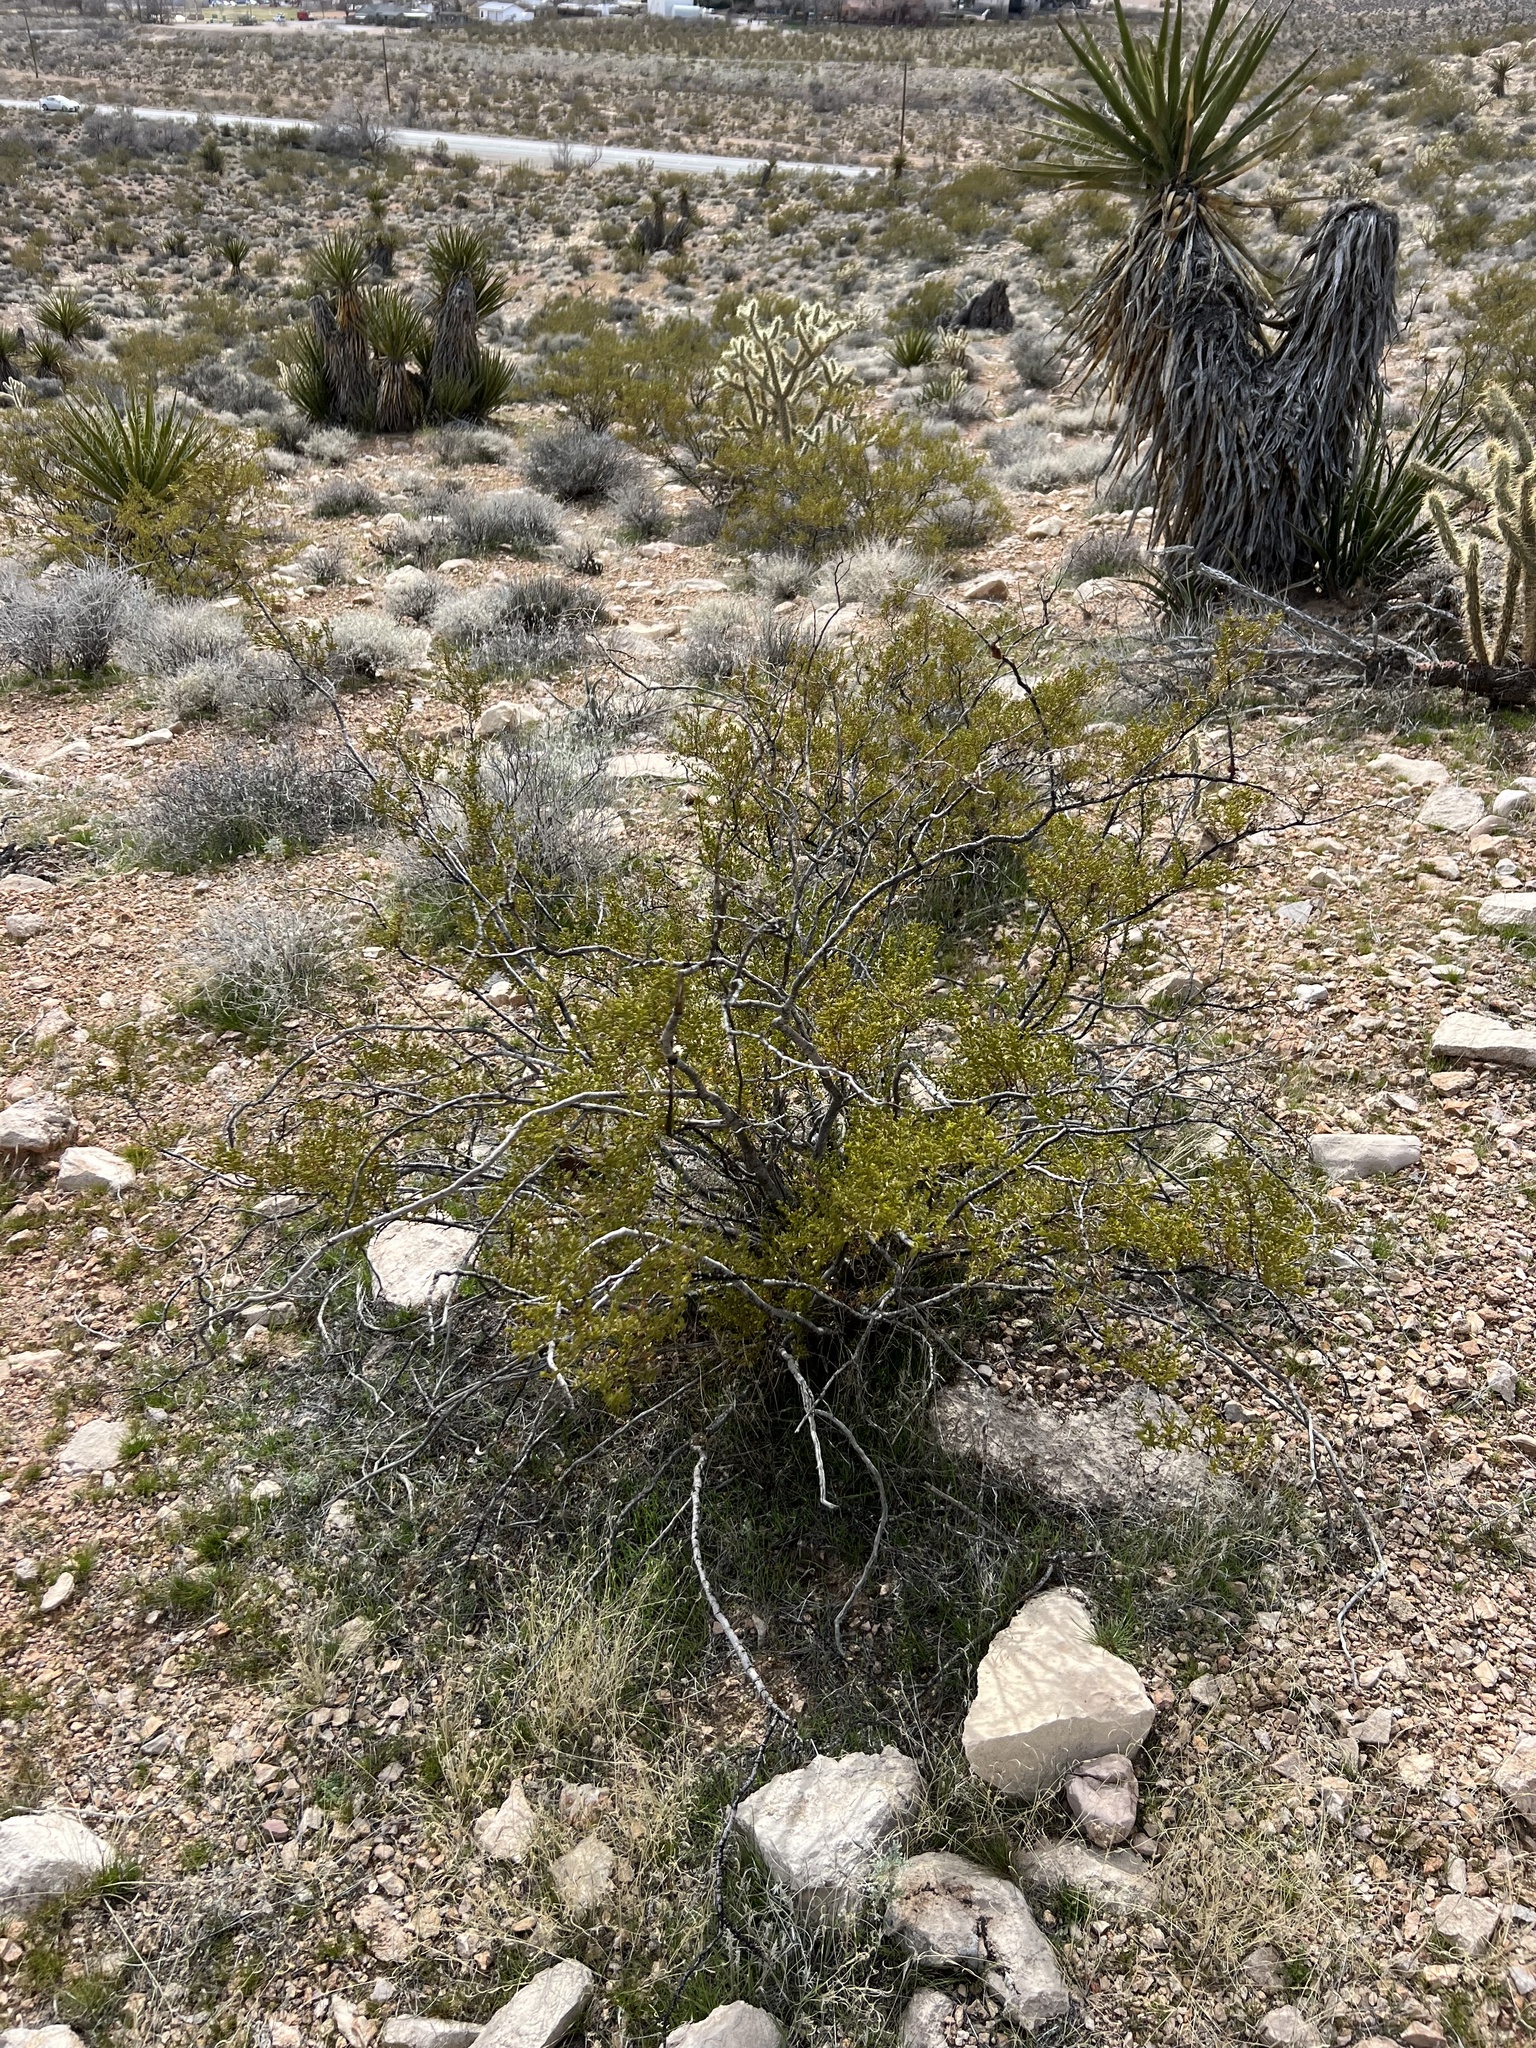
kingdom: Plantae
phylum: Tracheophyta
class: Magnoliopsida
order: Zygophyllales
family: Zygophyllaceae
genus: Larrea
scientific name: Larrea tridentata
